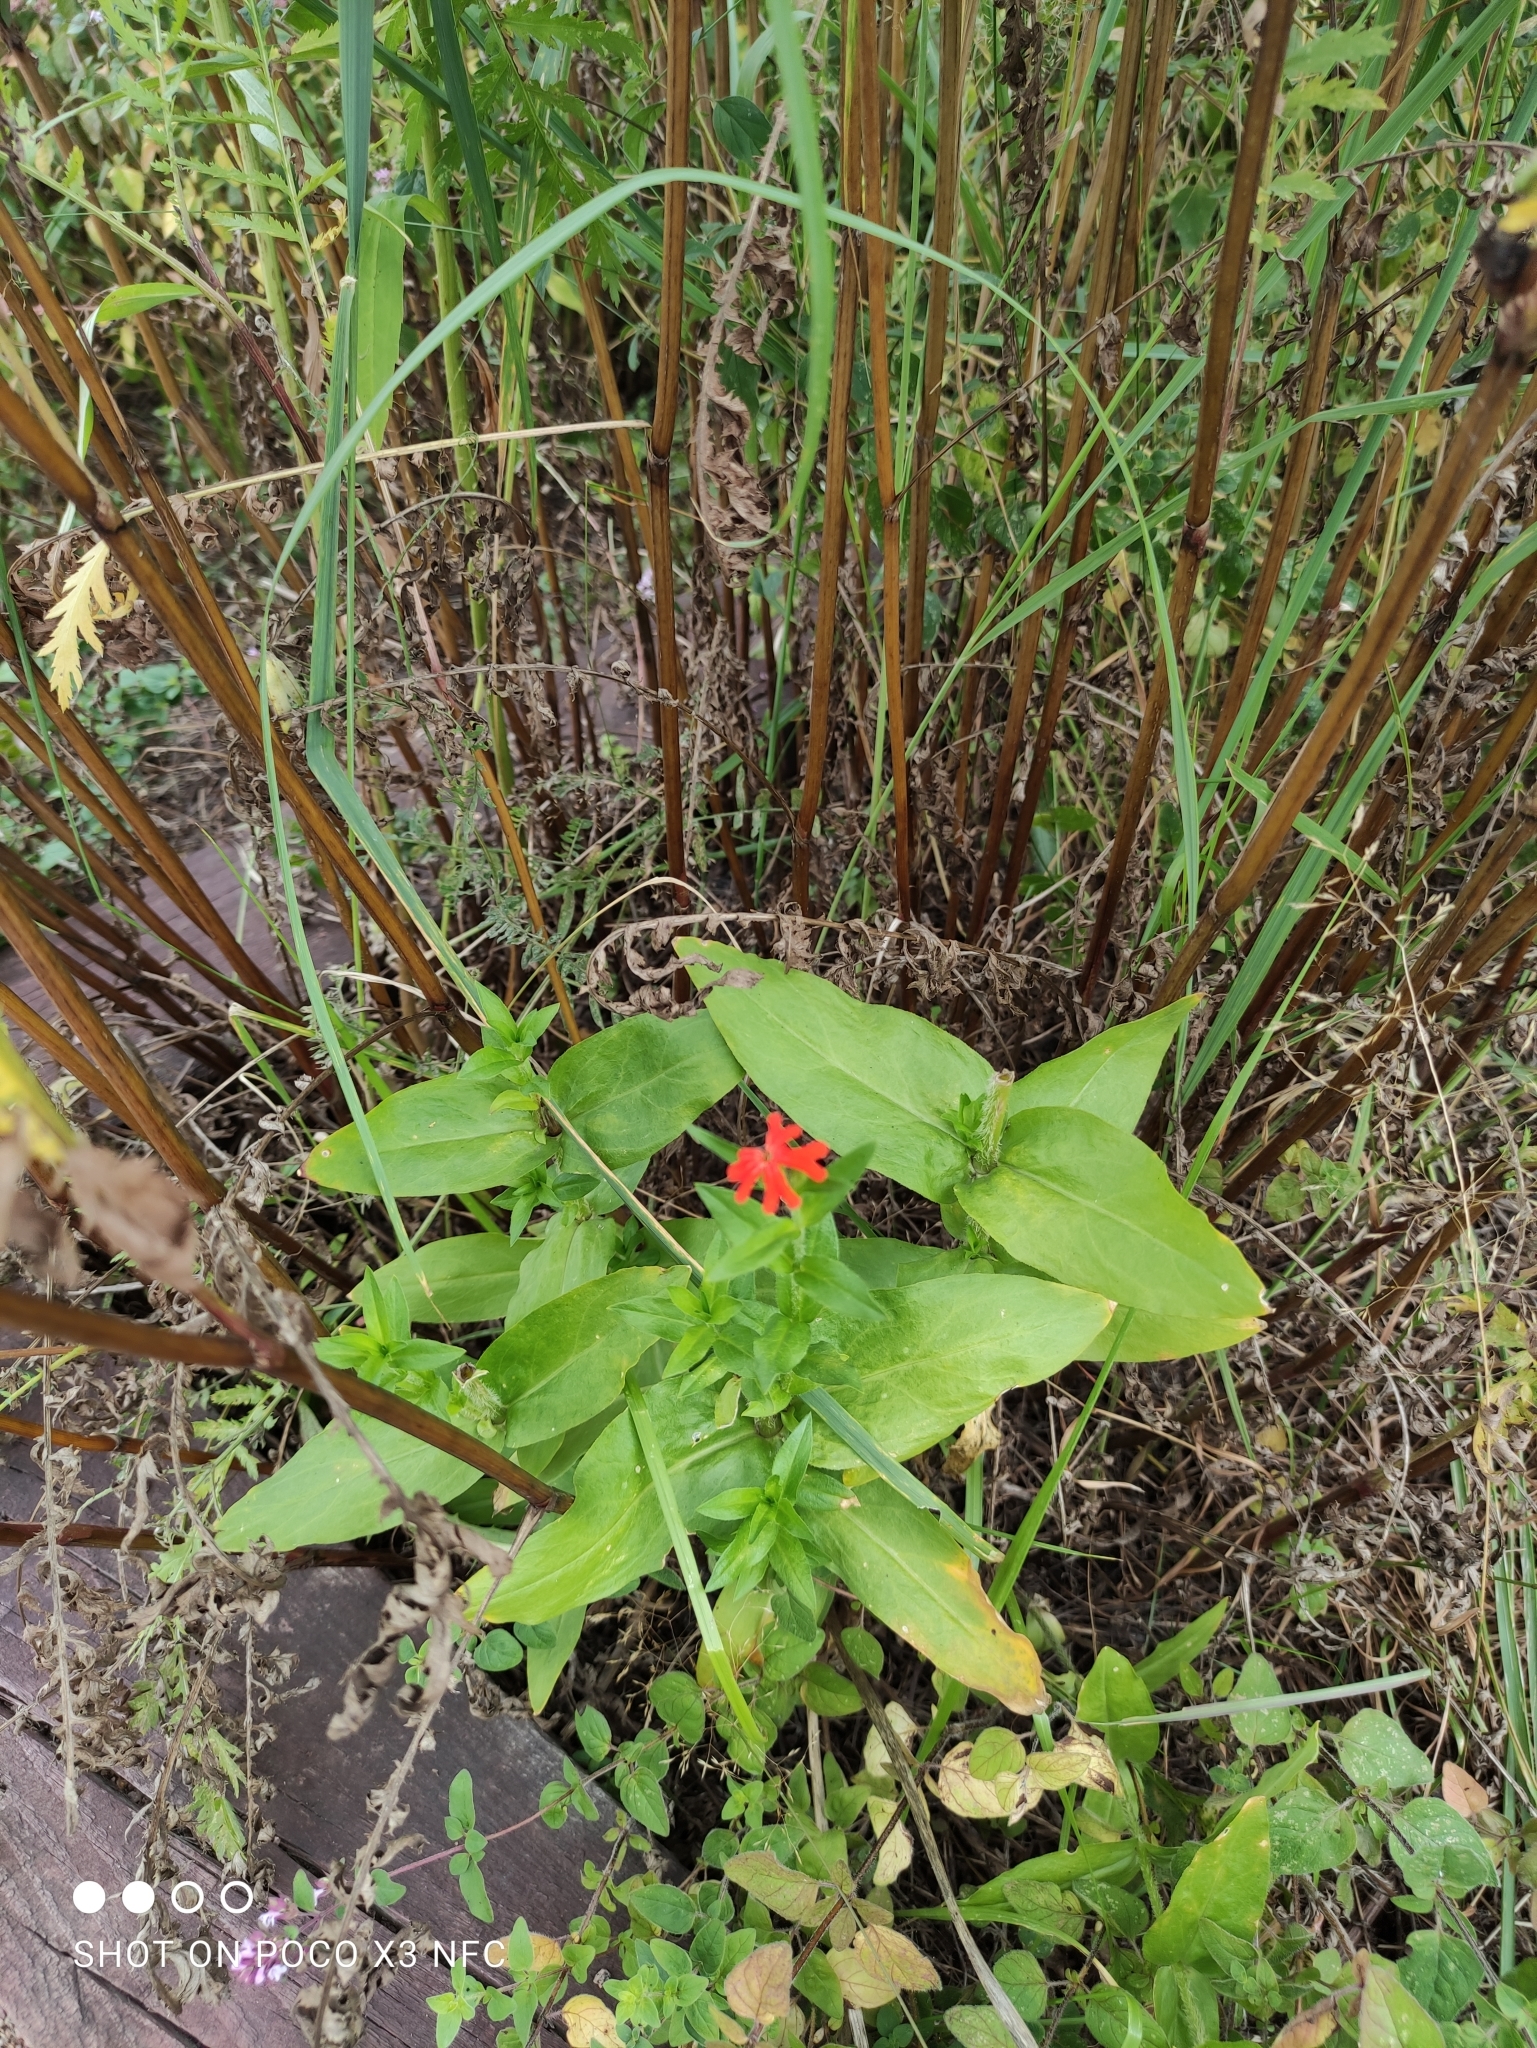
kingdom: Plantae
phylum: Tracheophyta
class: Magnoliopsida
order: Caryophyllales
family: Caryophyllaceae
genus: Silene
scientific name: Silene chalcedonica
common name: Maltese-cross
